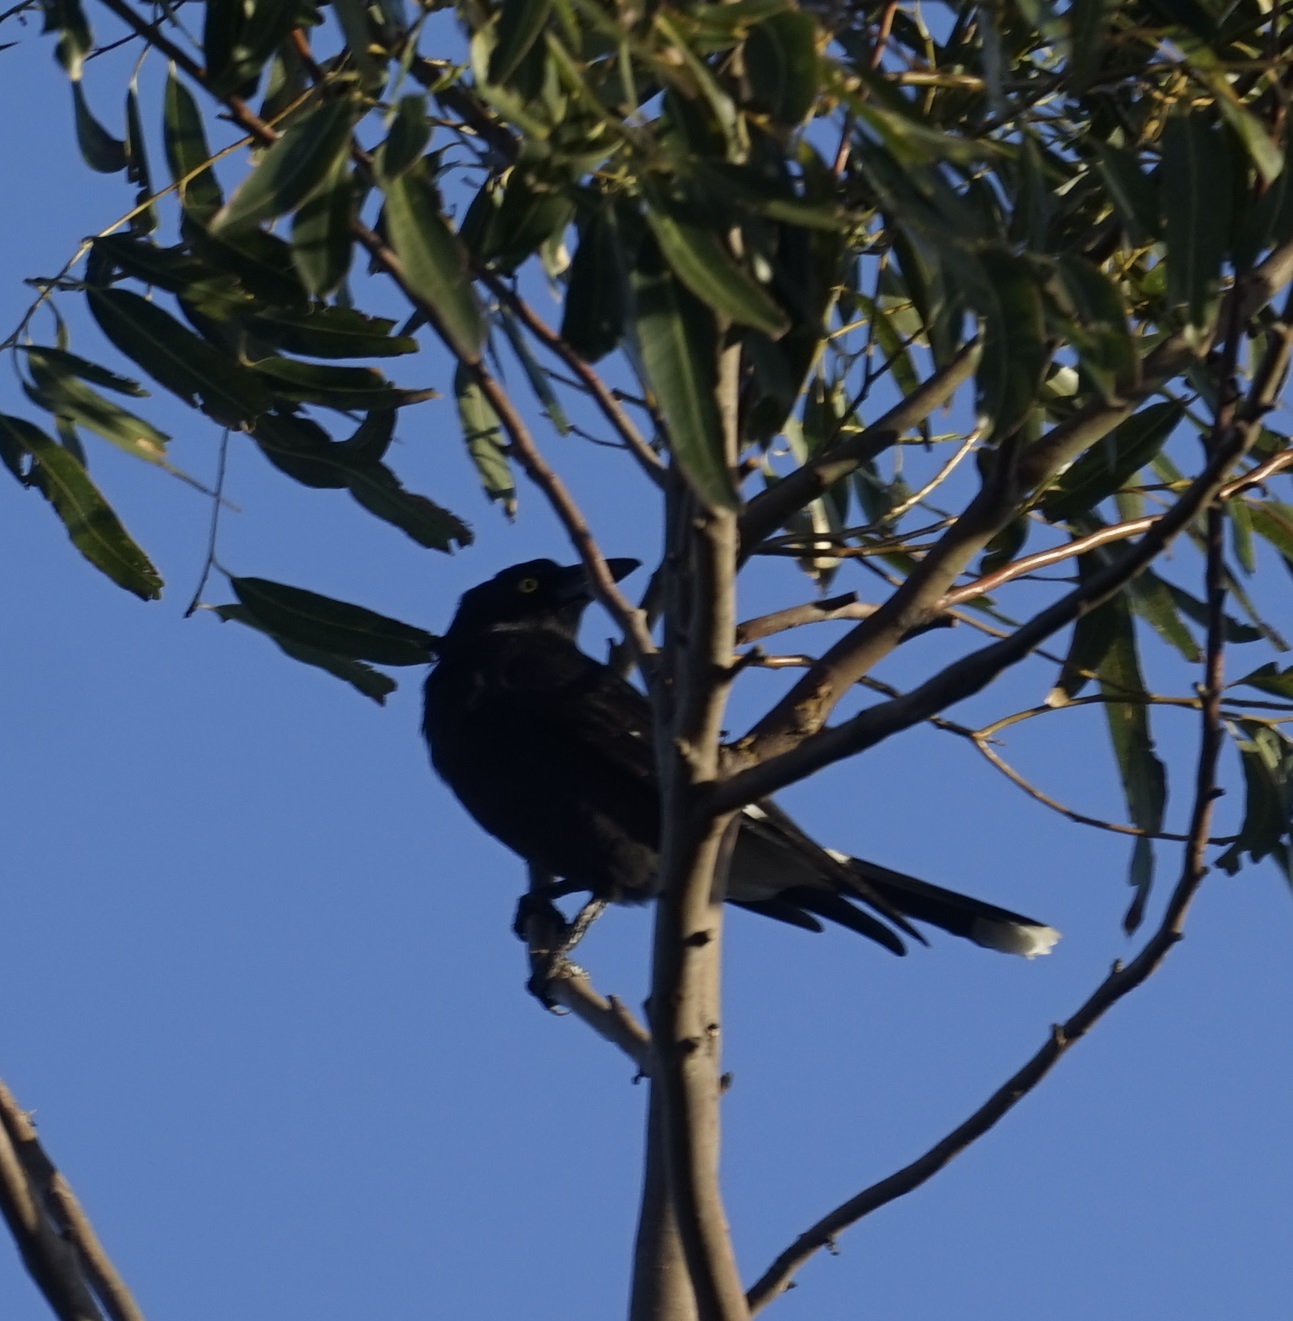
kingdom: Animalia
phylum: Chordata
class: Aves
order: Passeriformes
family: Cracticidae
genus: Strepera
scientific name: Strepera graculina
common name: Pied currawong
